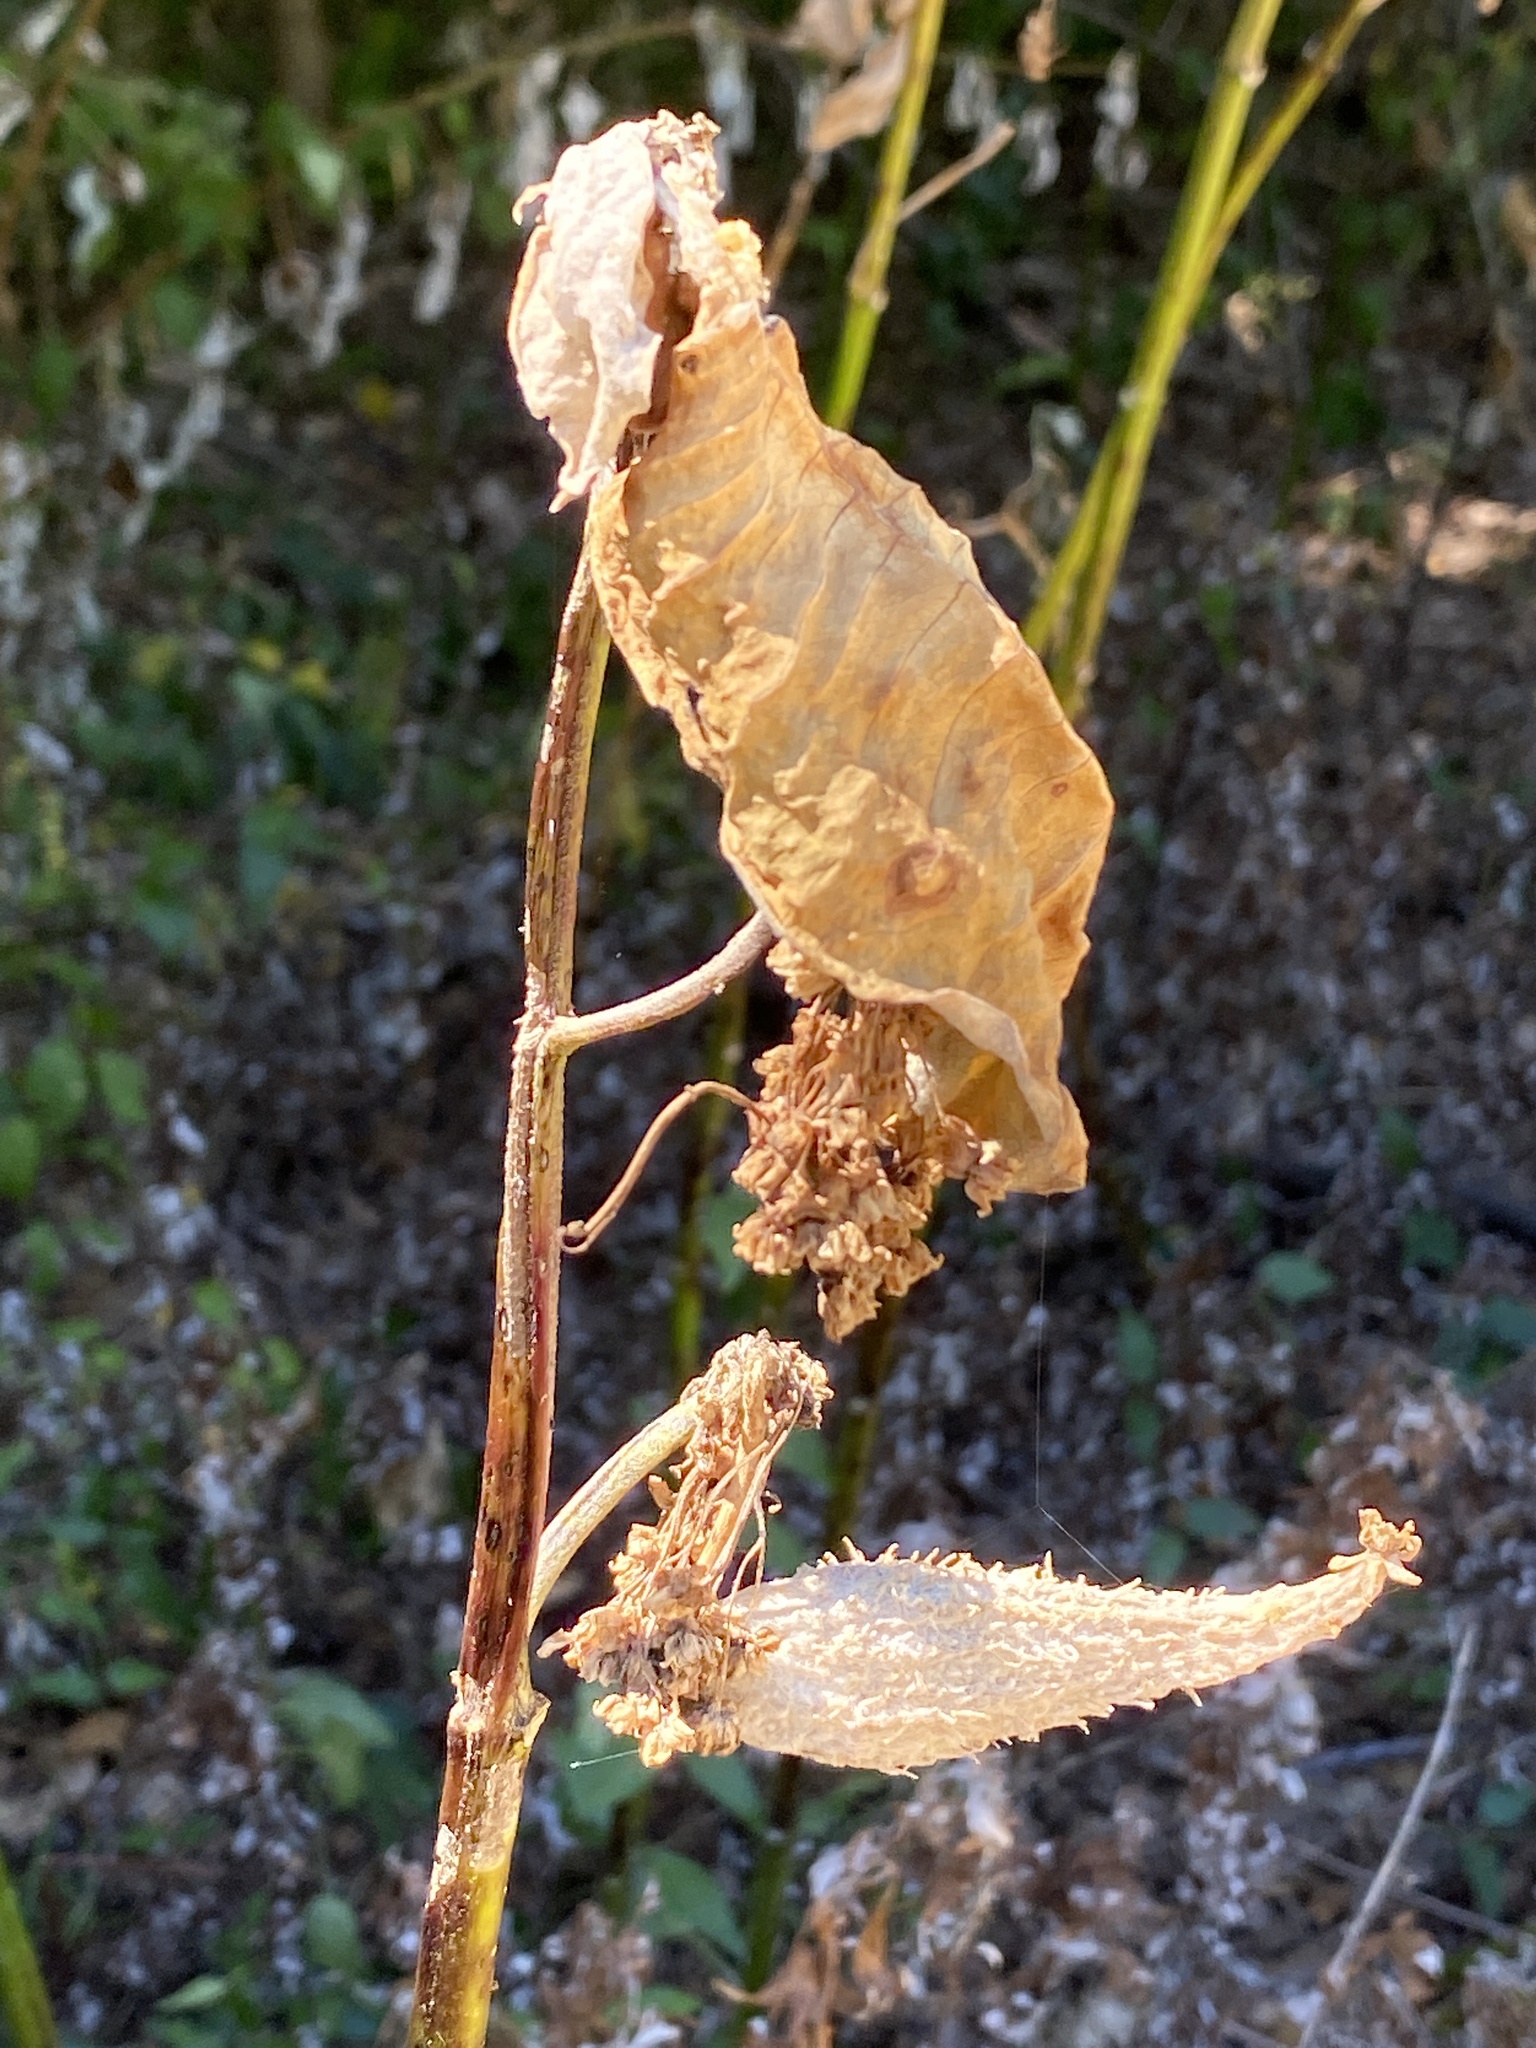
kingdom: Plantae
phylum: Tracheophyta
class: Magnoliopsida
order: Gentianales
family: Apocynaceae
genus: Asclepias
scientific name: Asclepias syriaca
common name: Common milkweed
